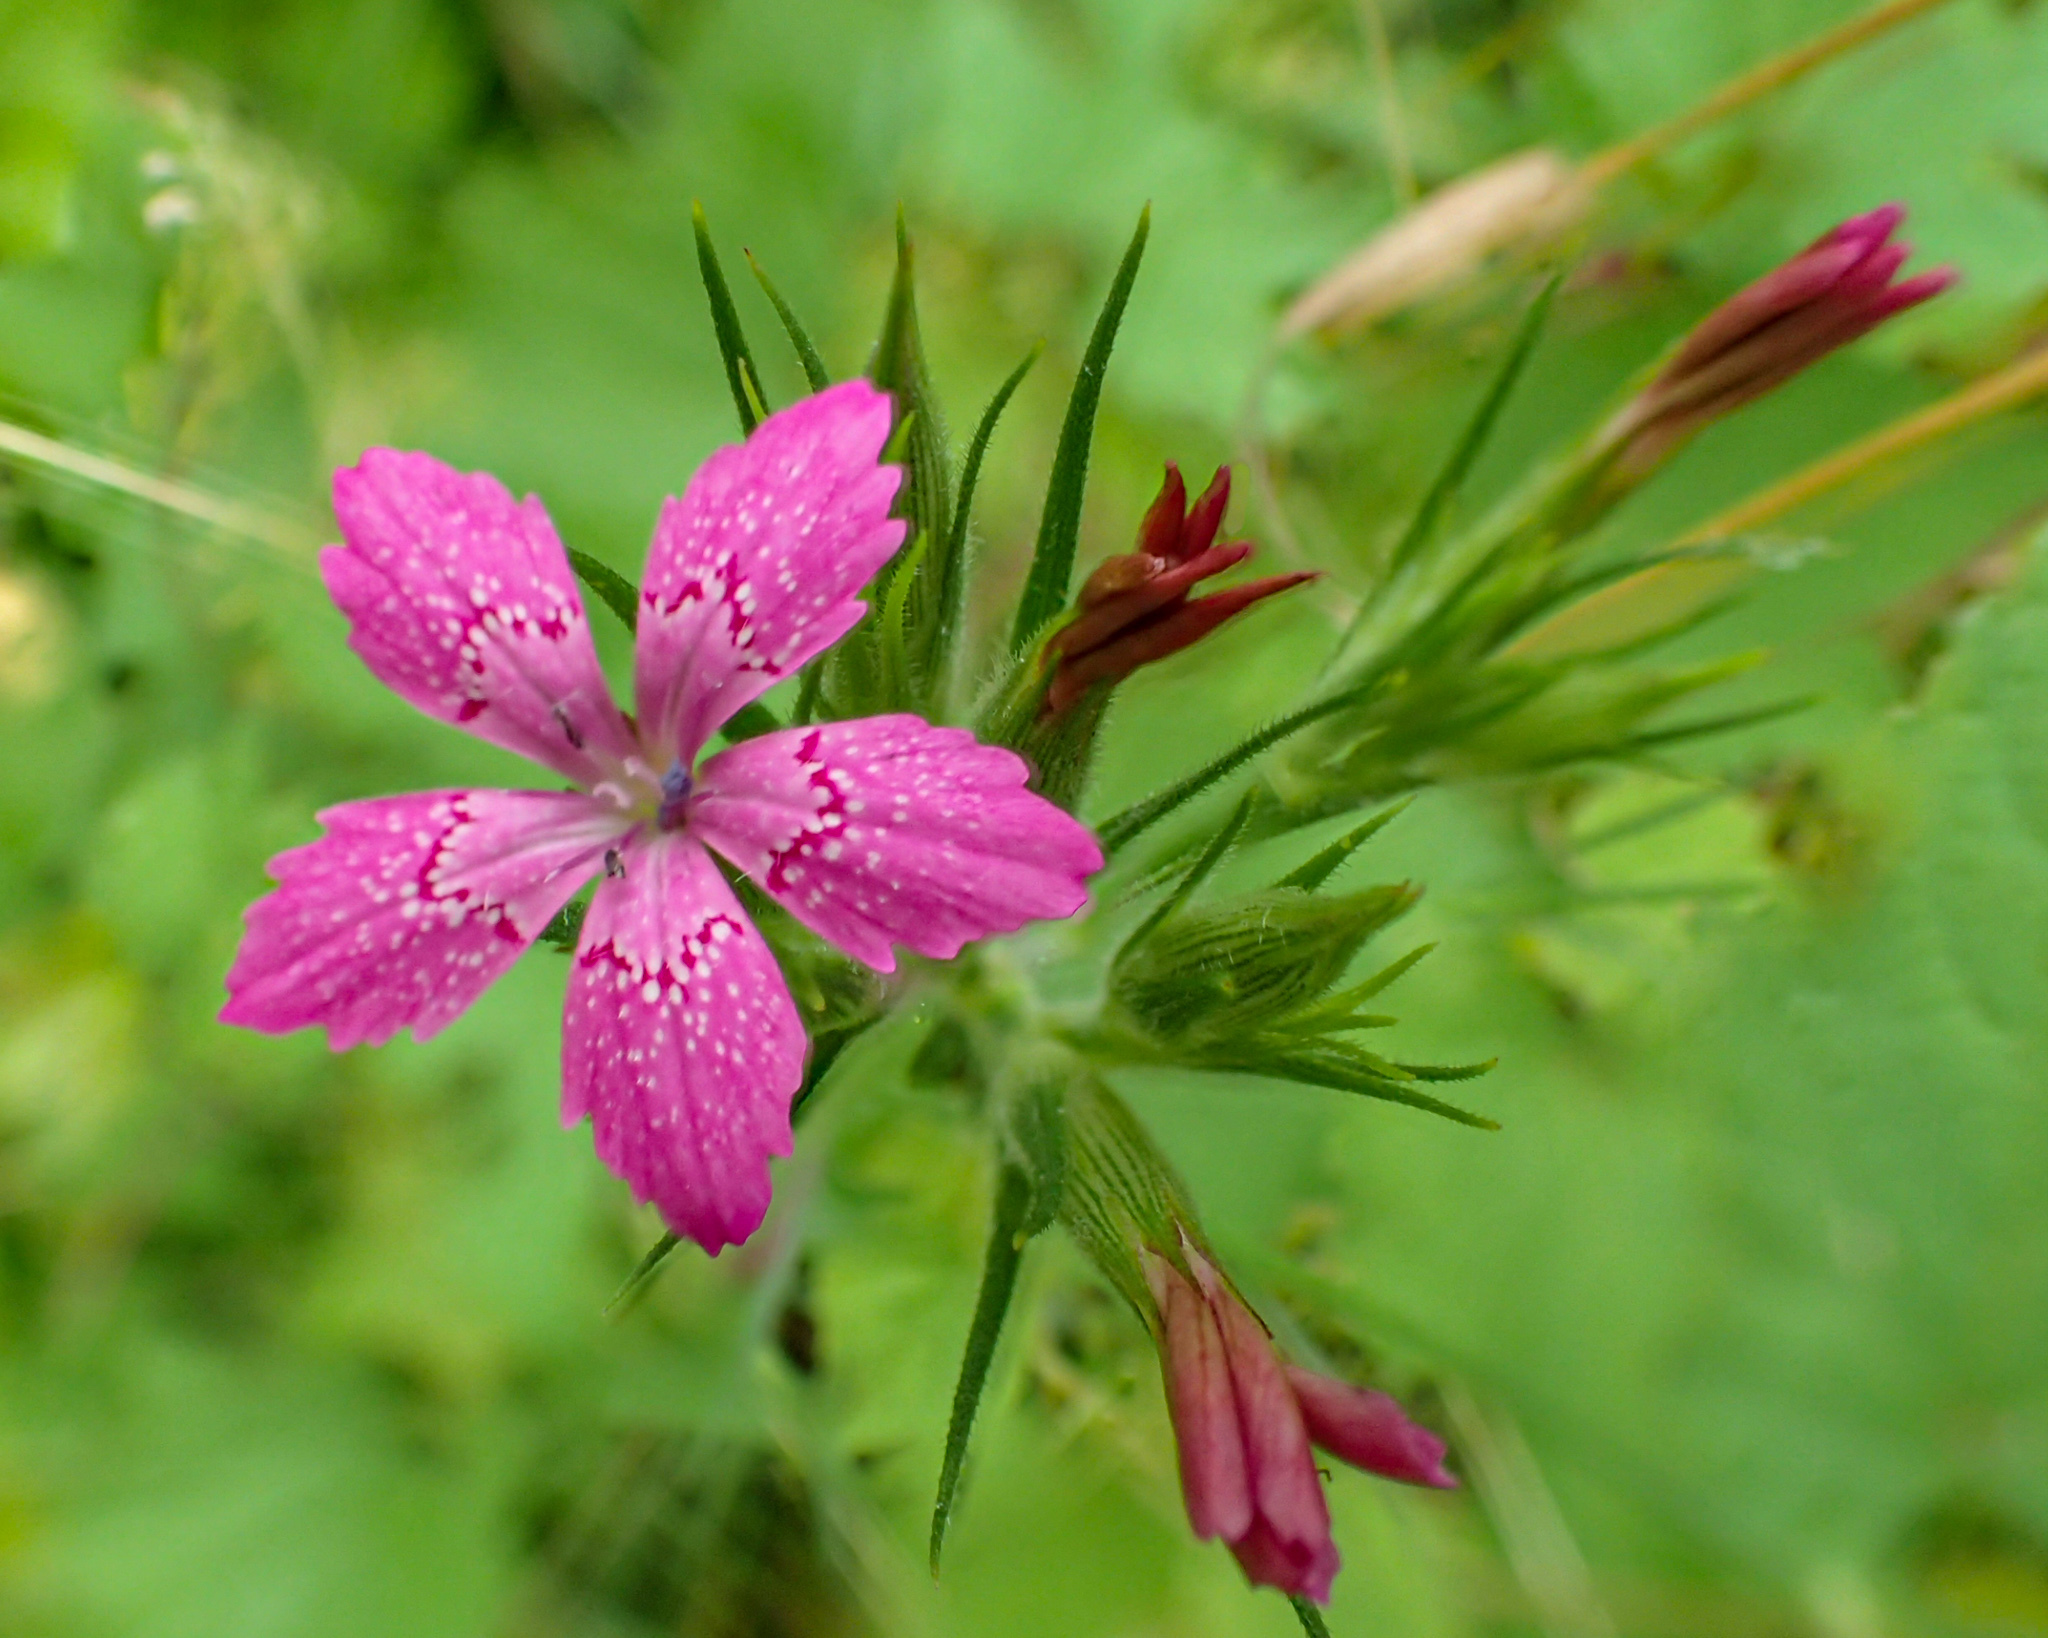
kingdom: Plantae
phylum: Tracheophyta
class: Magnoliopsida
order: Caryophyllales
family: Caryophyllaceae
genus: Dianthus
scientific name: Dianthus armeria
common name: Deptford pink
